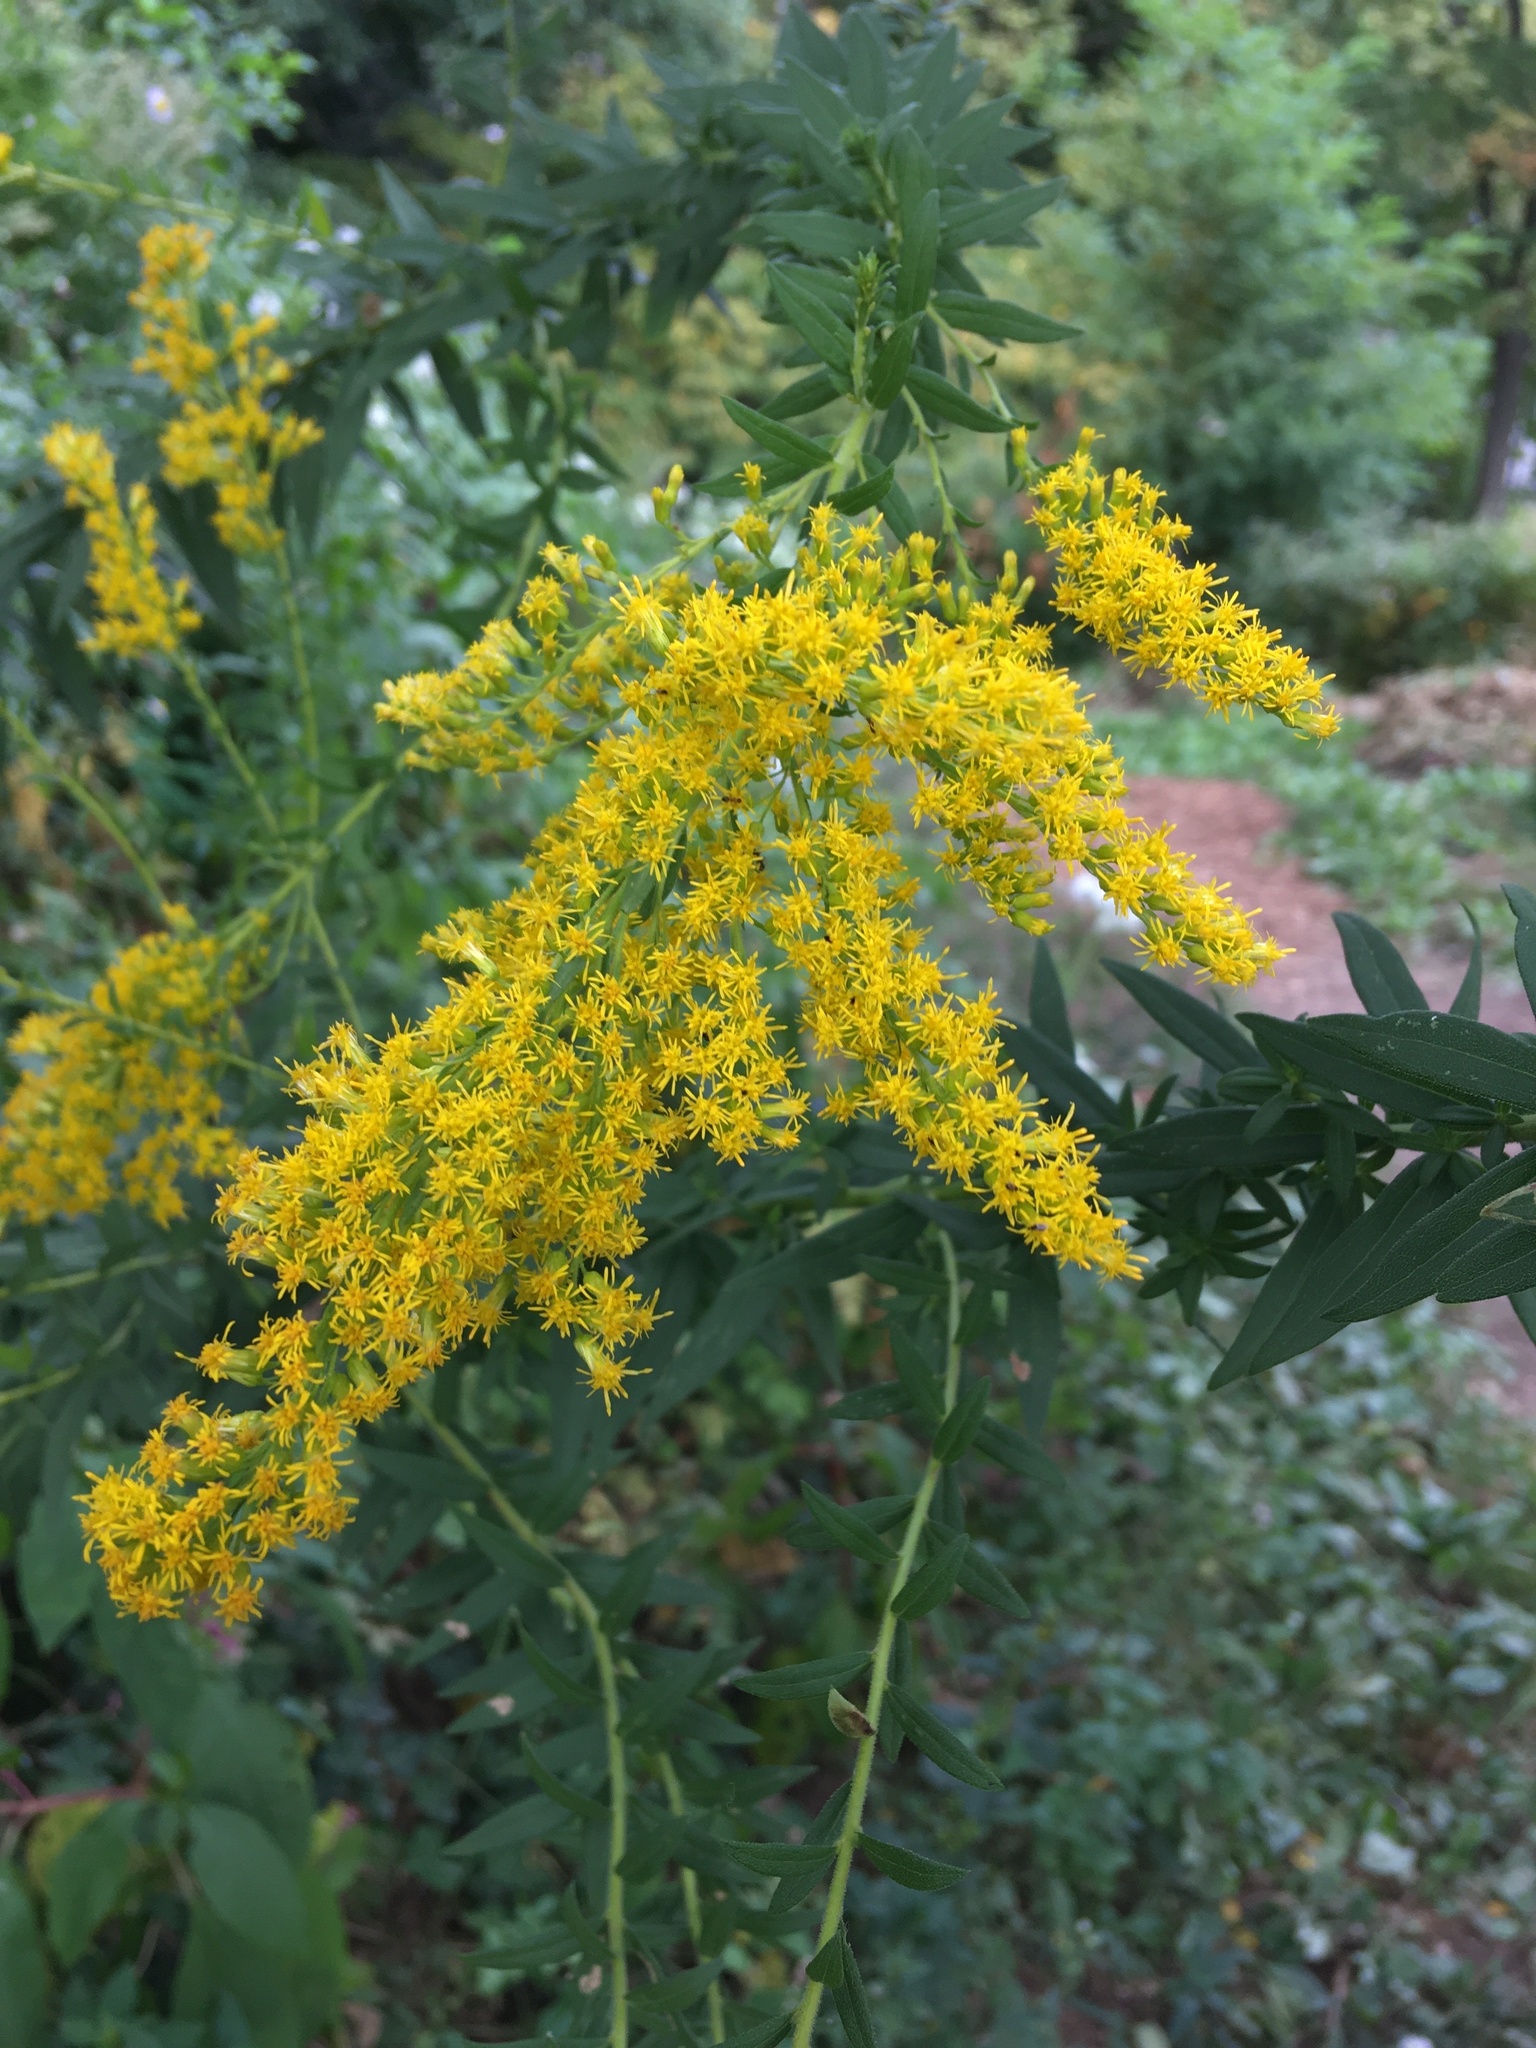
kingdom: Plantae
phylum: Tracheophyta
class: Magnoliopsida
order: Asterales
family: Asteraceae
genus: Solidago
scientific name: Solidago altissima
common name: Late goldenrod
